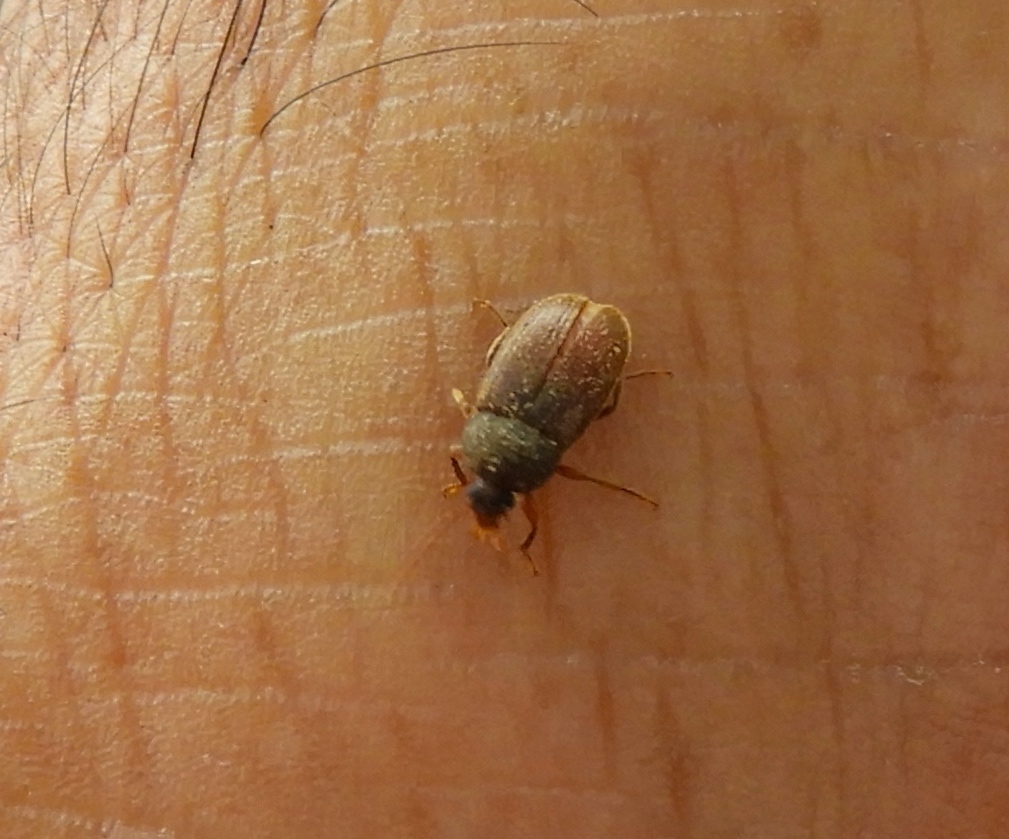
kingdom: Animalia
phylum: Arthropoda
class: Insecta
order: Coleoptera
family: Tenebrionidae
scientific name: Tenebrionidae
